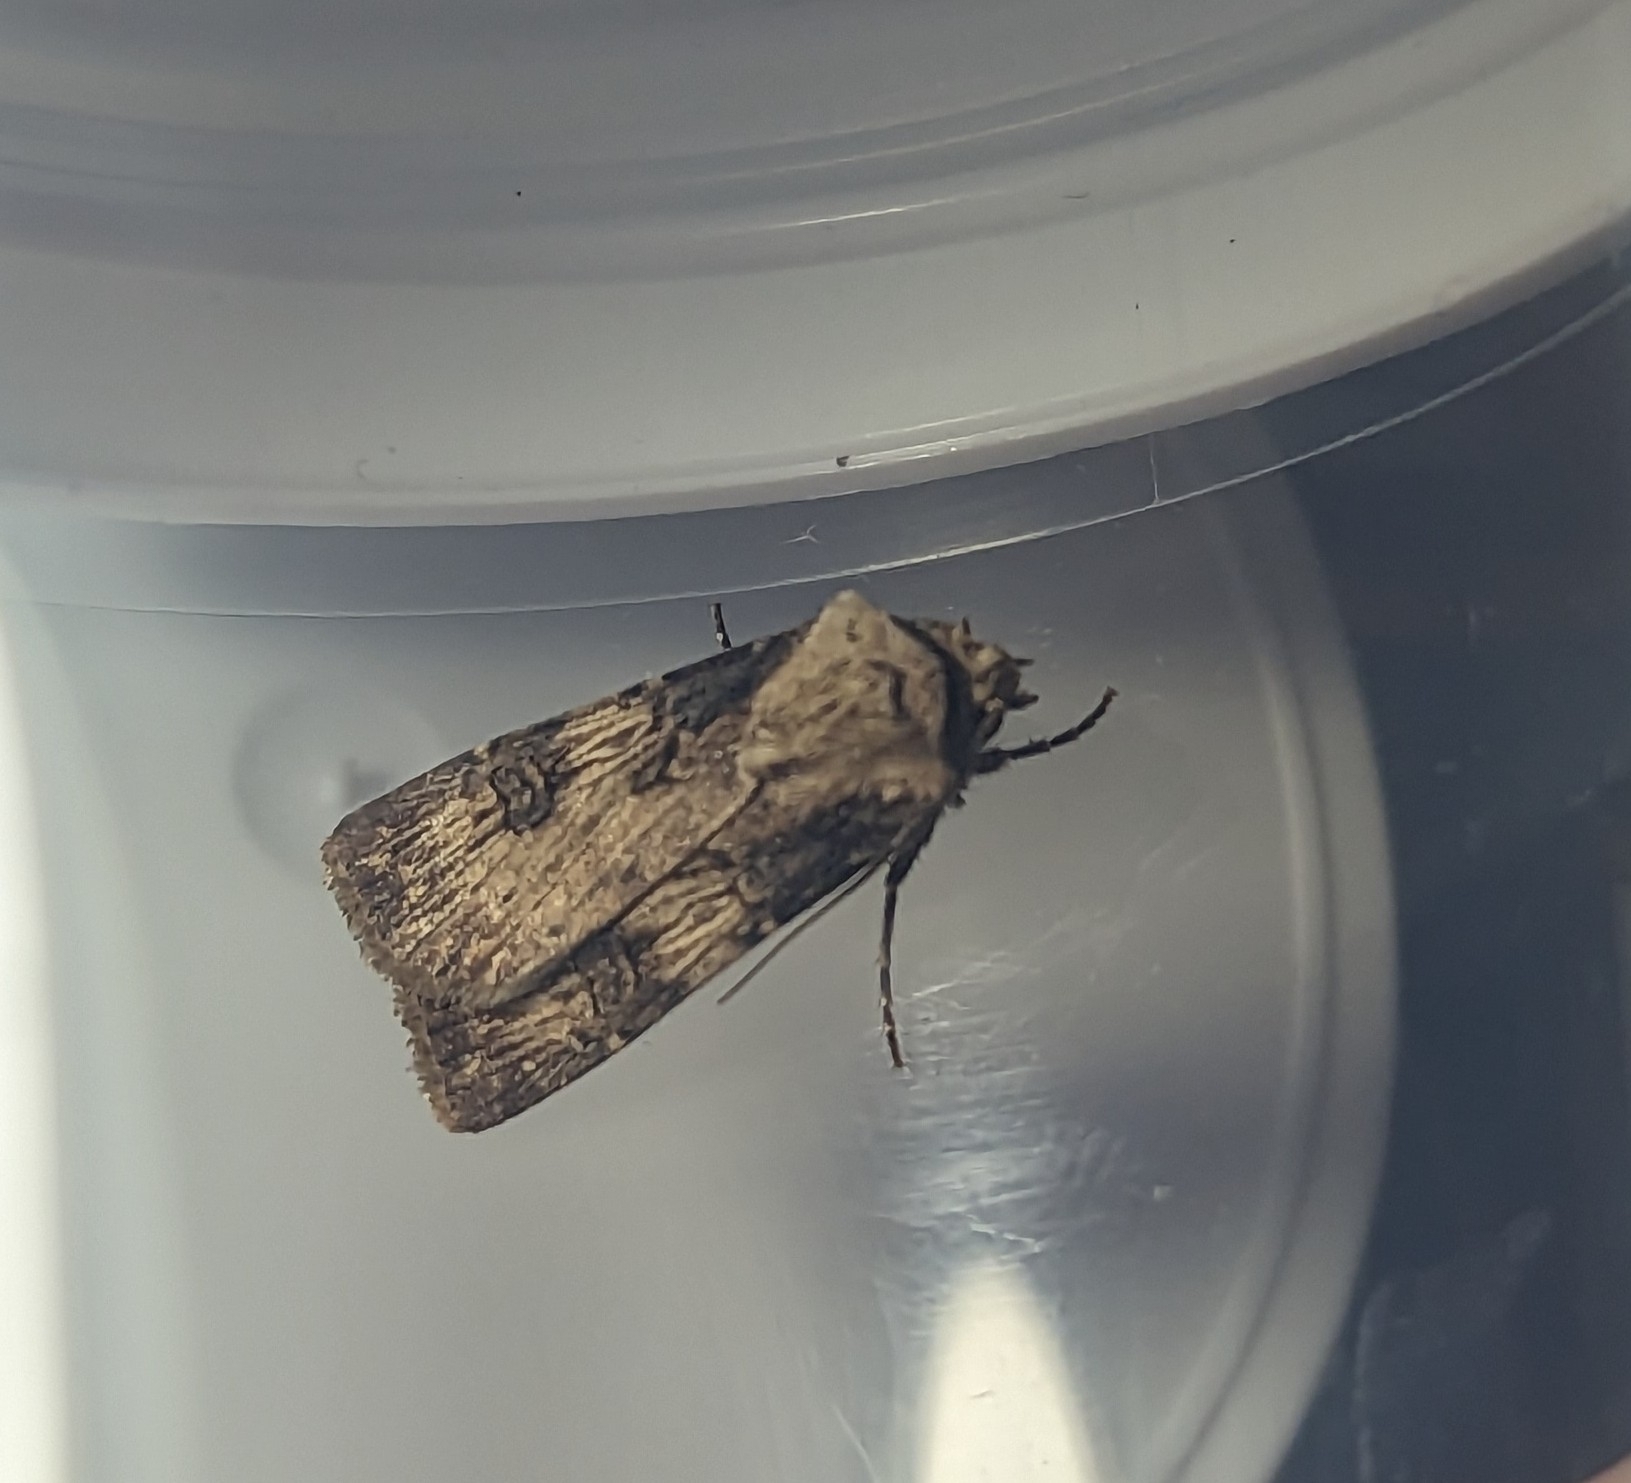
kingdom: Animalia
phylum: Arthropoda
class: Insecta
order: Lepidoptera
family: Noctuidae
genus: Agrotis
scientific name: Agrotis puta
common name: Shuttle-shaped dart
